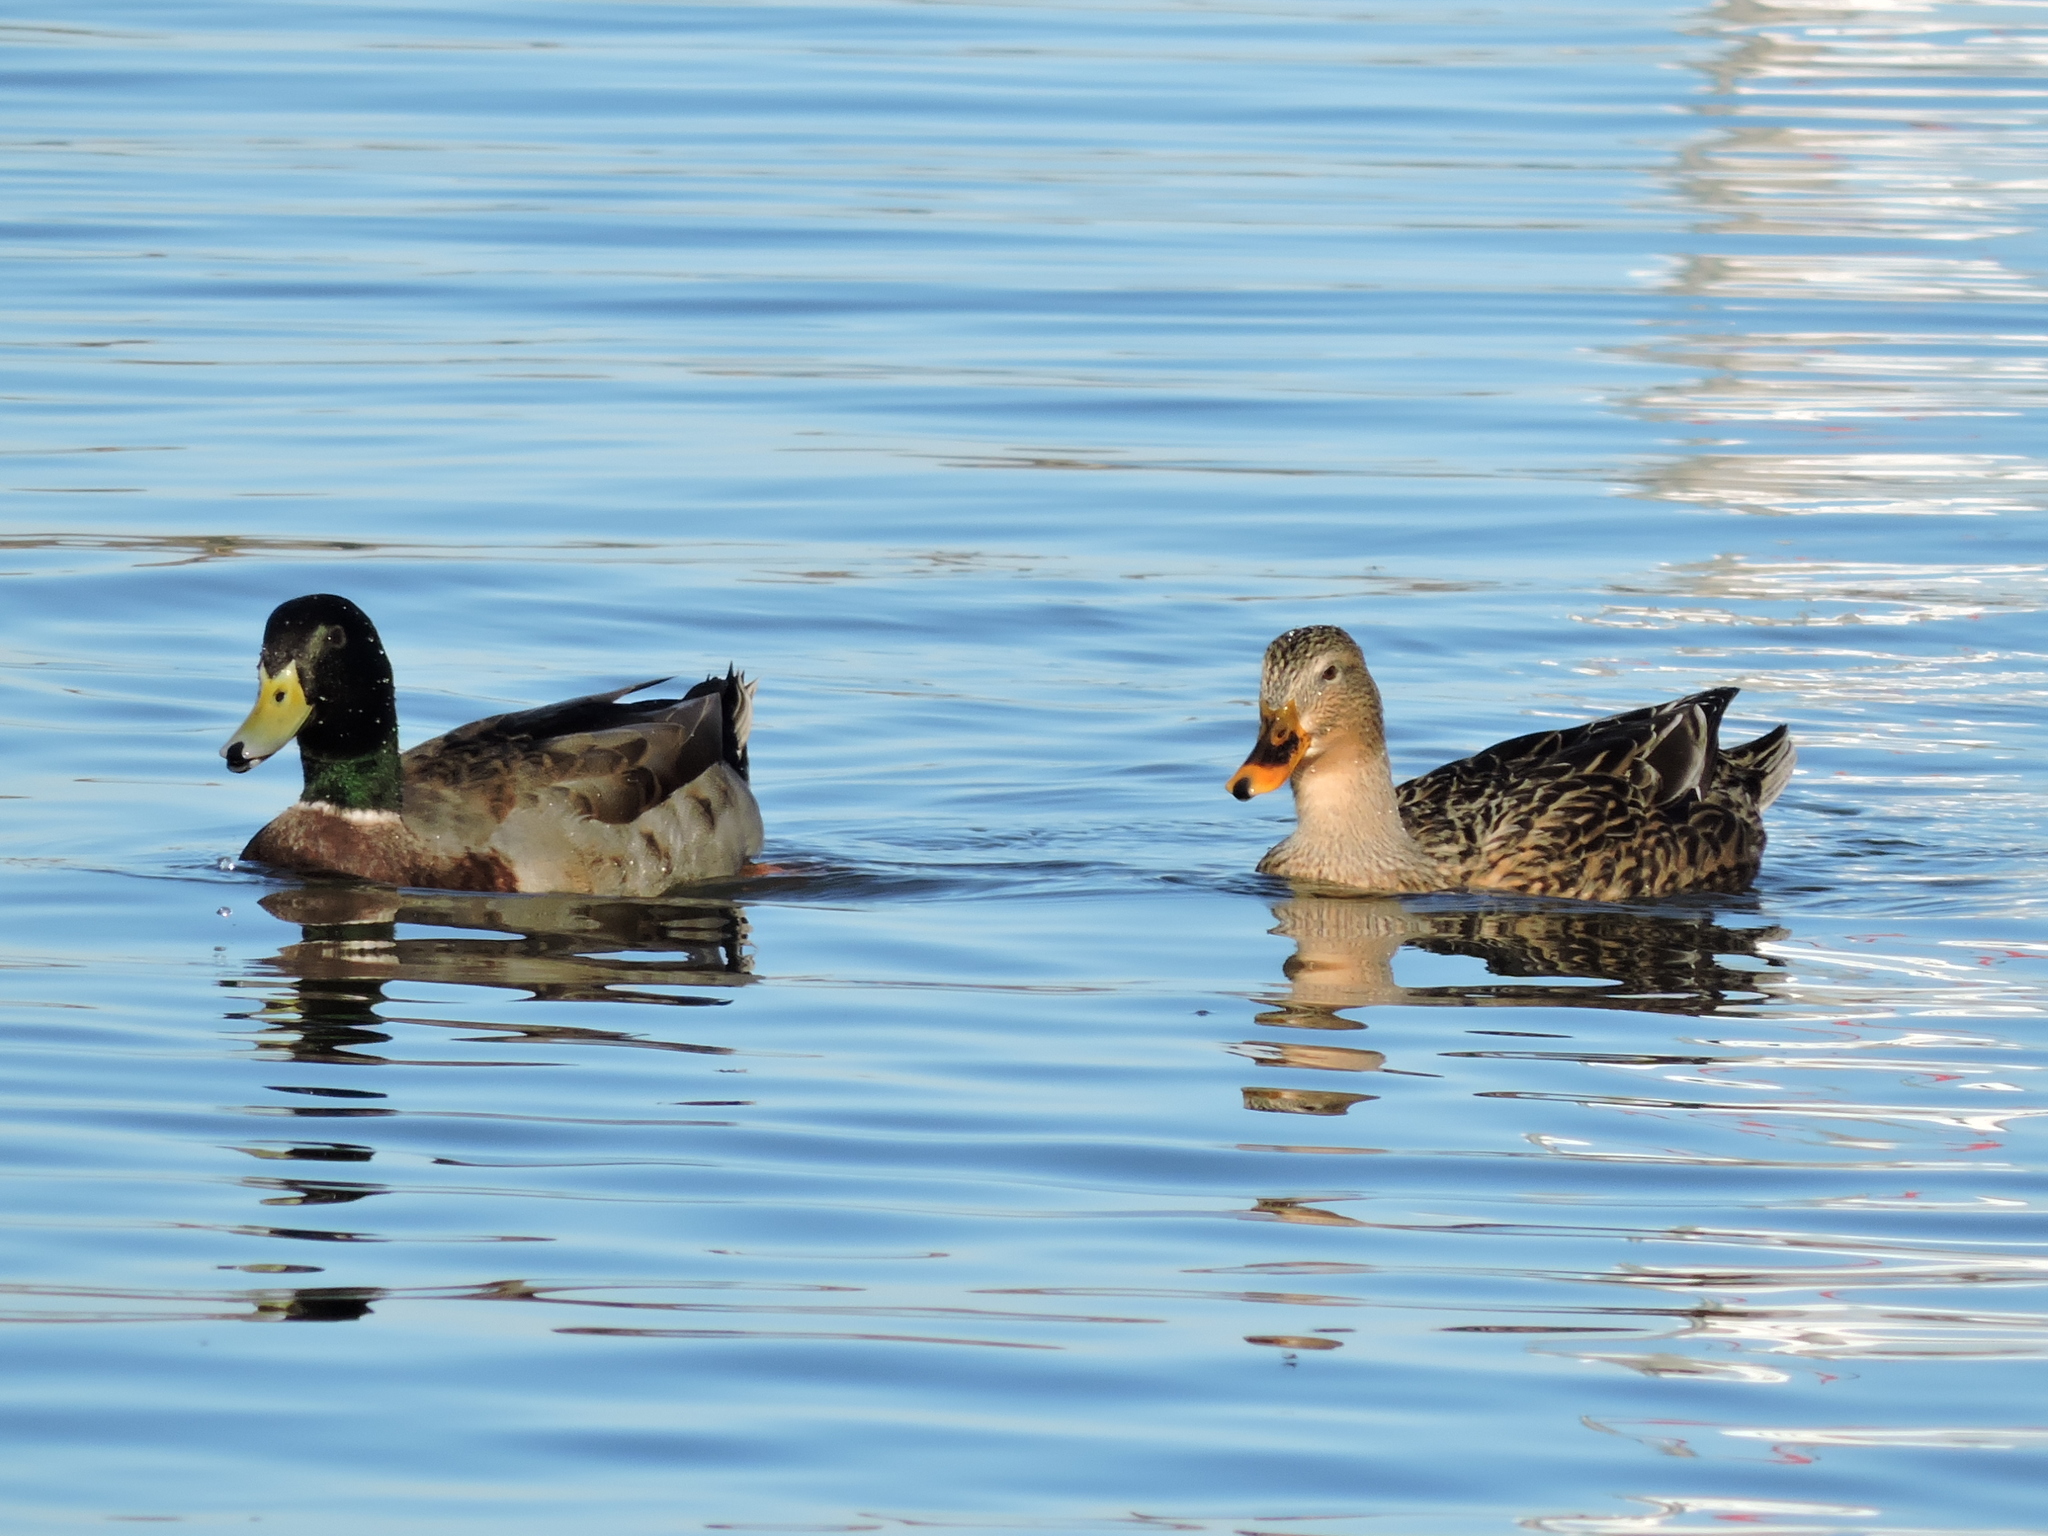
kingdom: Animalia
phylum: Chordata
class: Aves
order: Anseriformes
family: Anatidae
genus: Anas
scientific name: Anas platyrhynchos
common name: Mallard
